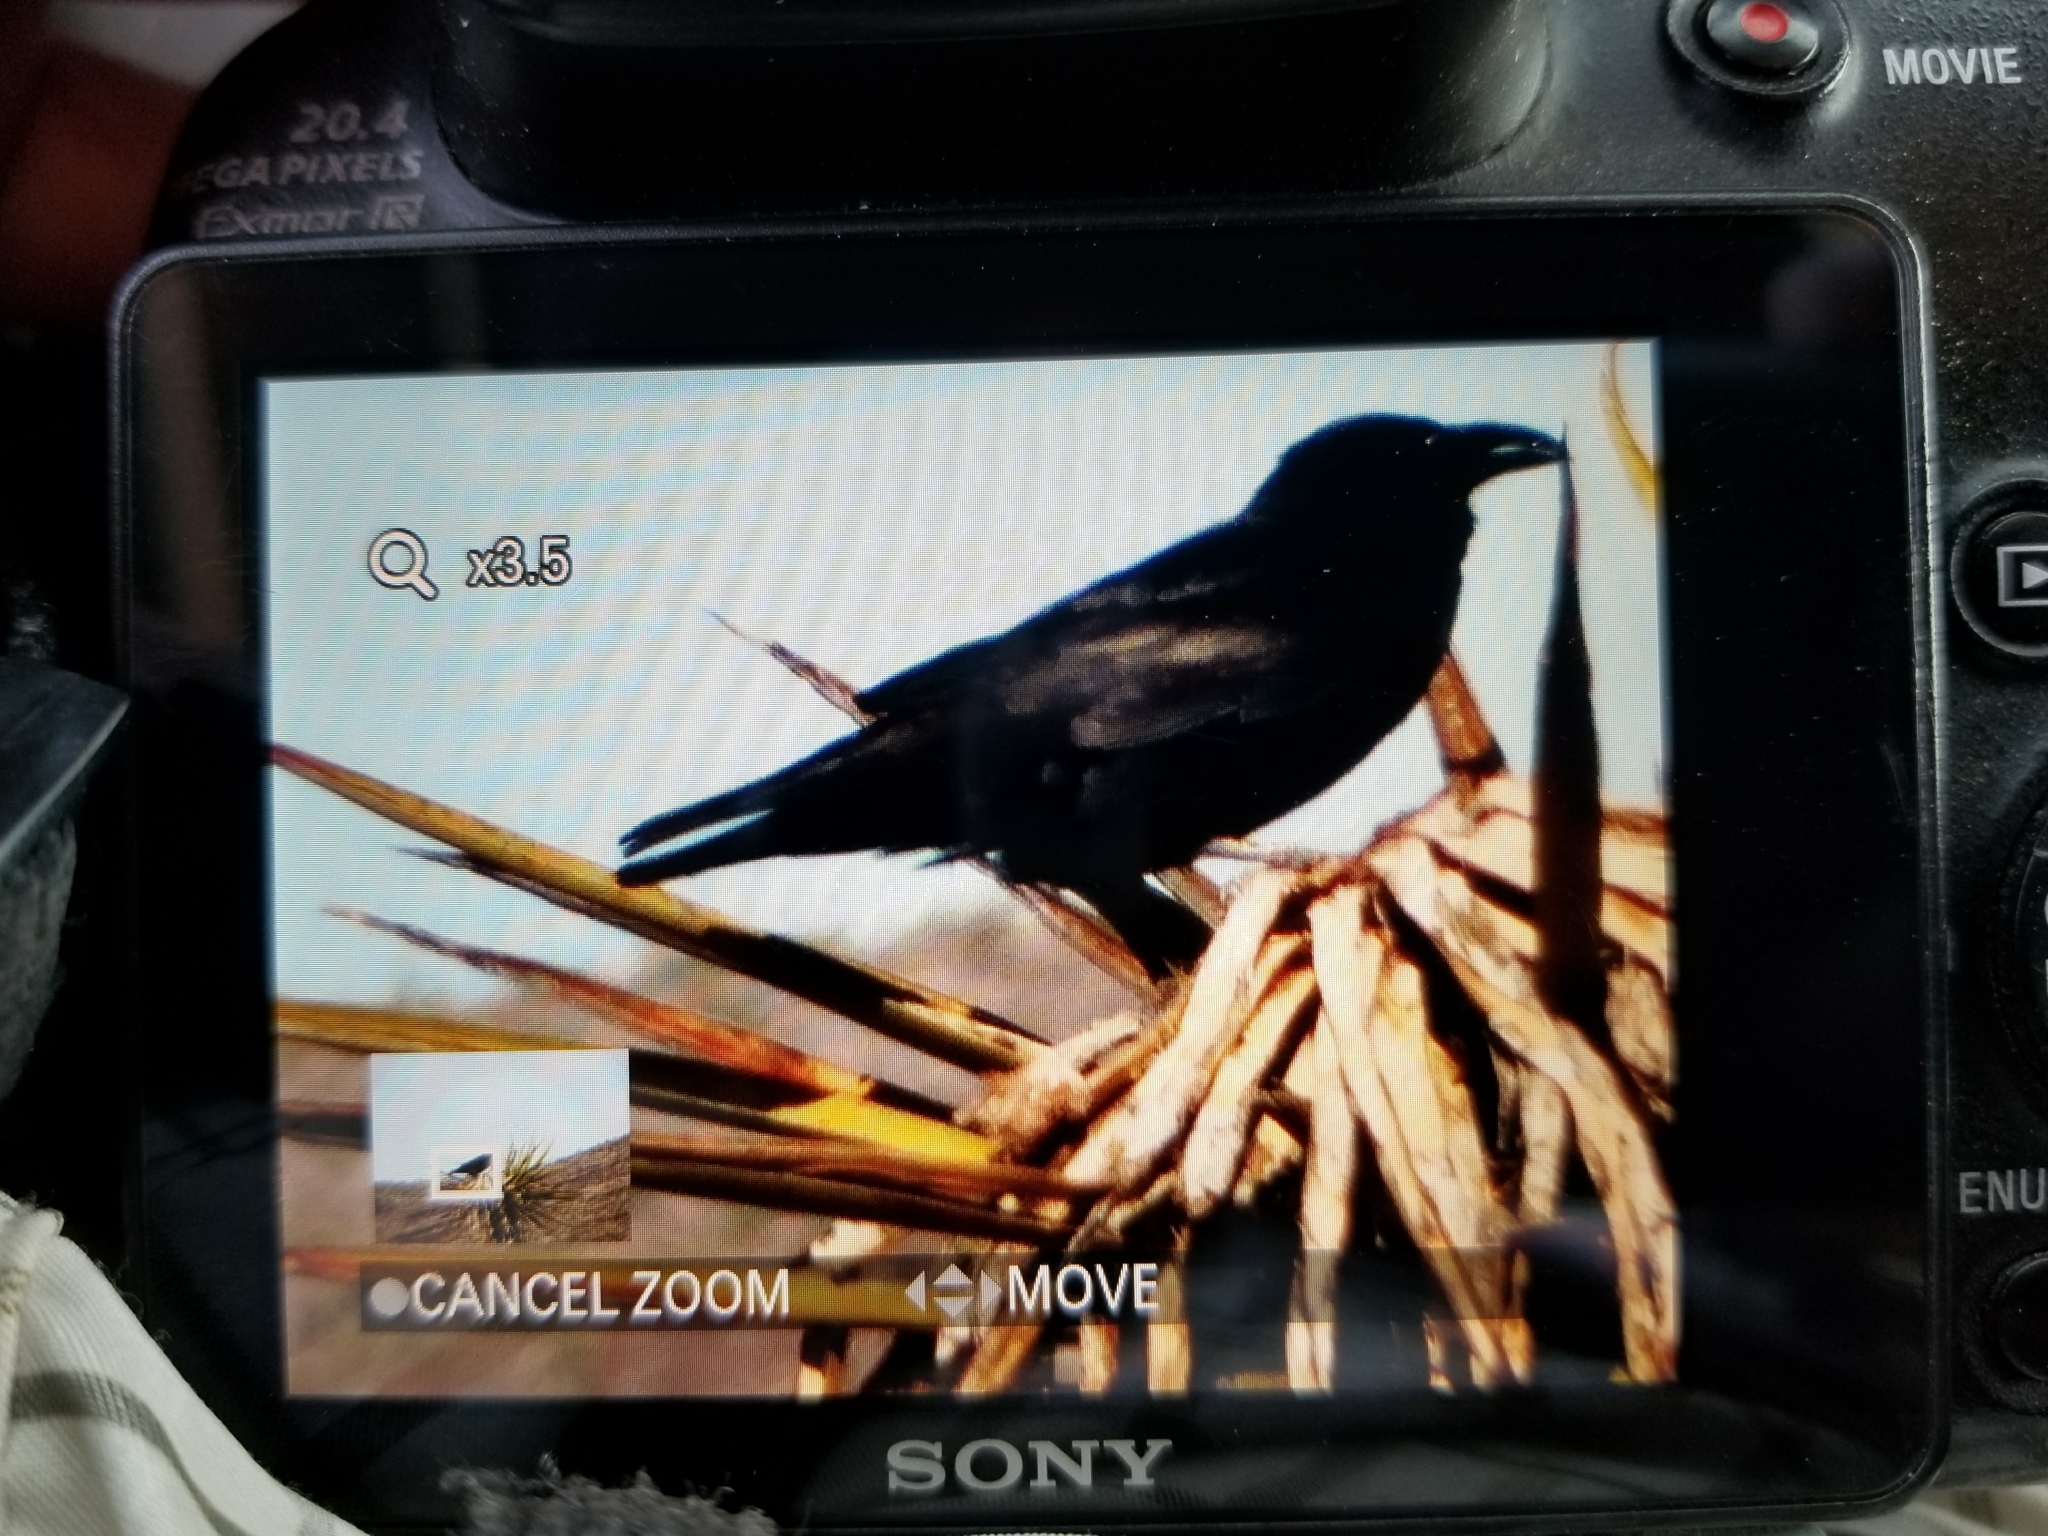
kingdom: Animalia
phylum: Chordata
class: Aves
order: Passeriformes
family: Corvidae
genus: Corvus
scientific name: Corvus corax
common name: Common raven
